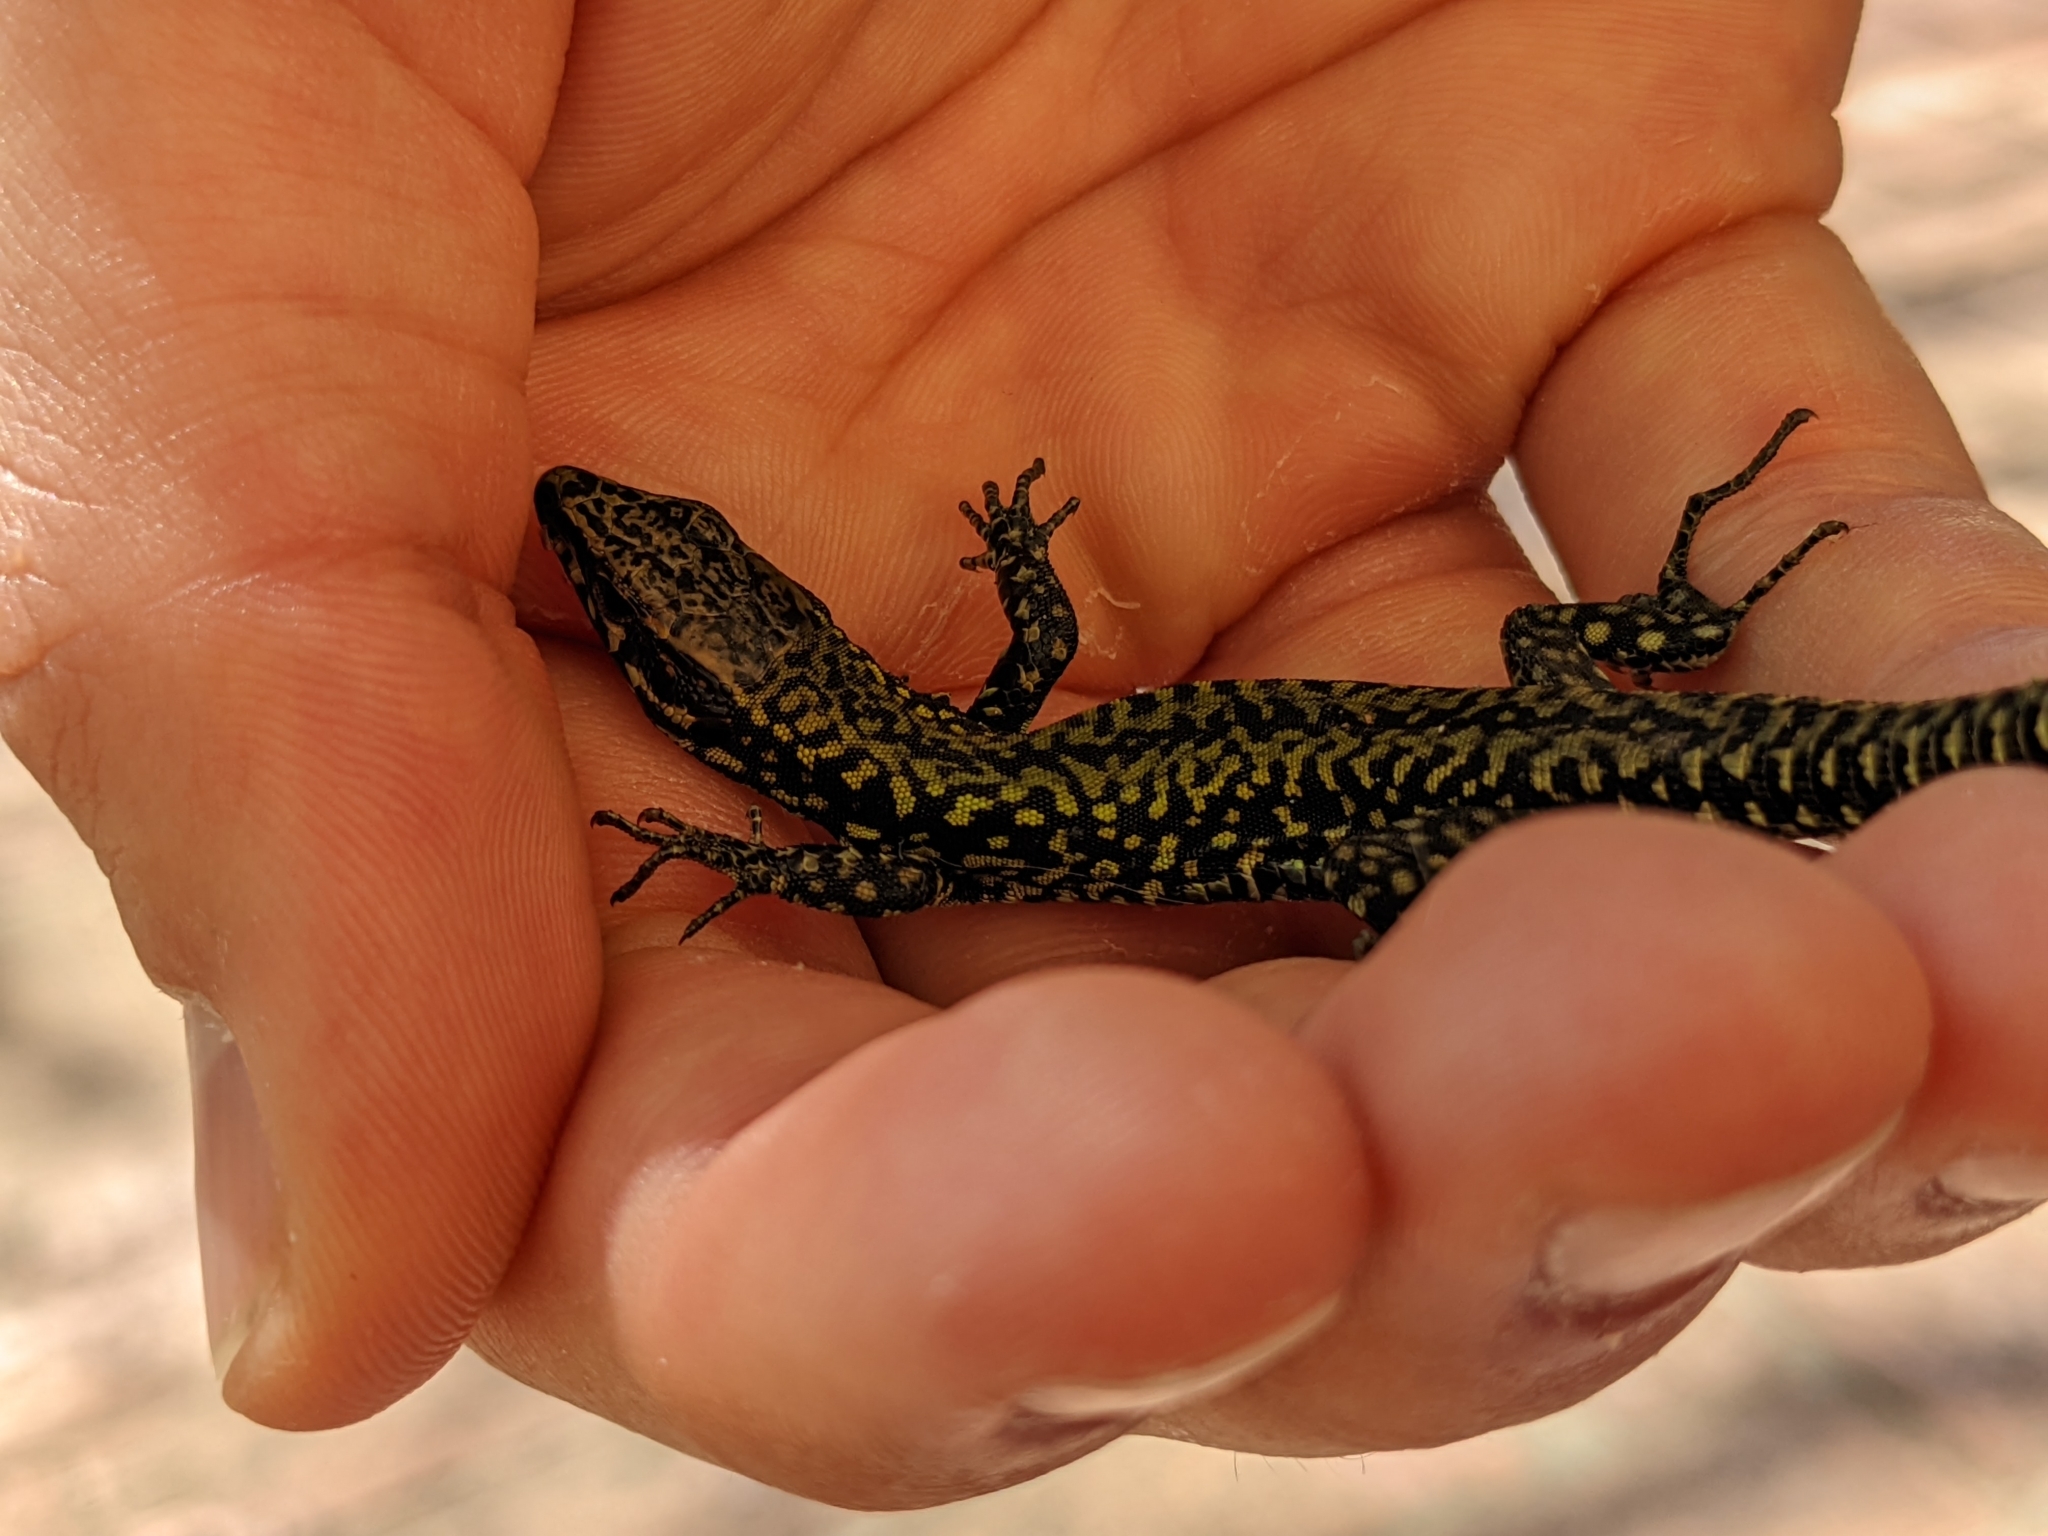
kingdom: Animalia
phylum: Chordata
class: Squamata
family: Lacertidae
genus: Podarcis
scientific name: Podarcis muralis
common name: Common wall lizard
